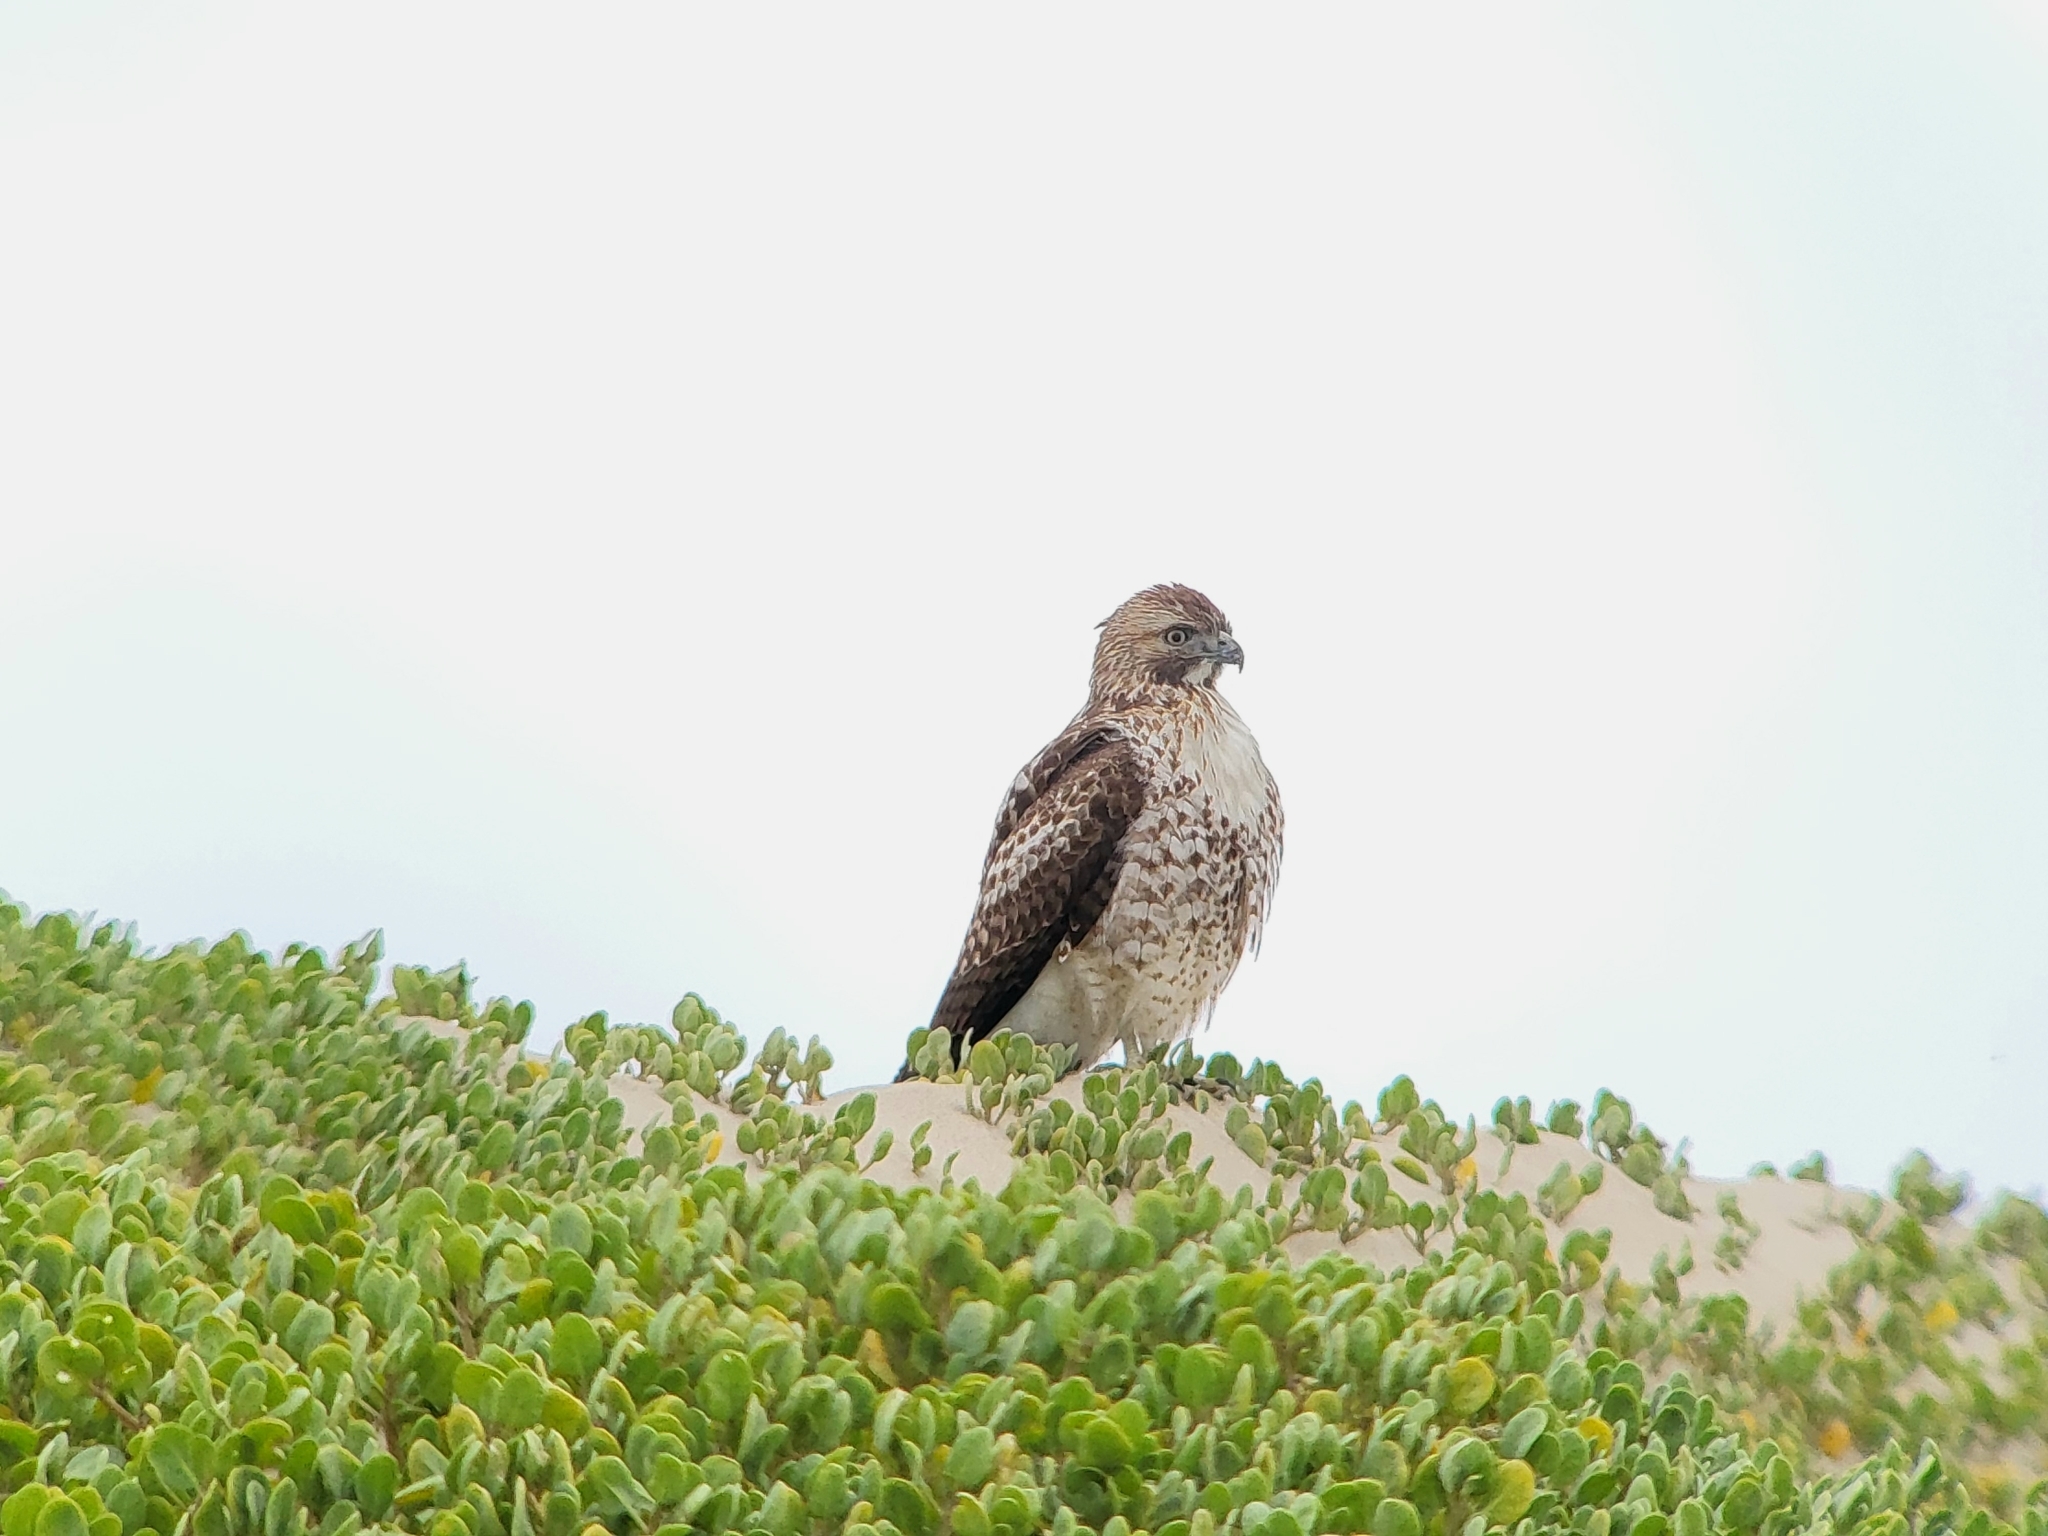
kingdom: Animalia
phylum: Chordata
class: Aves
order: Accipitriformes
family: Accipitridae
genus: Buteo
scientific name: Buteo jamaicensis
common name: Red-tailed hawk
